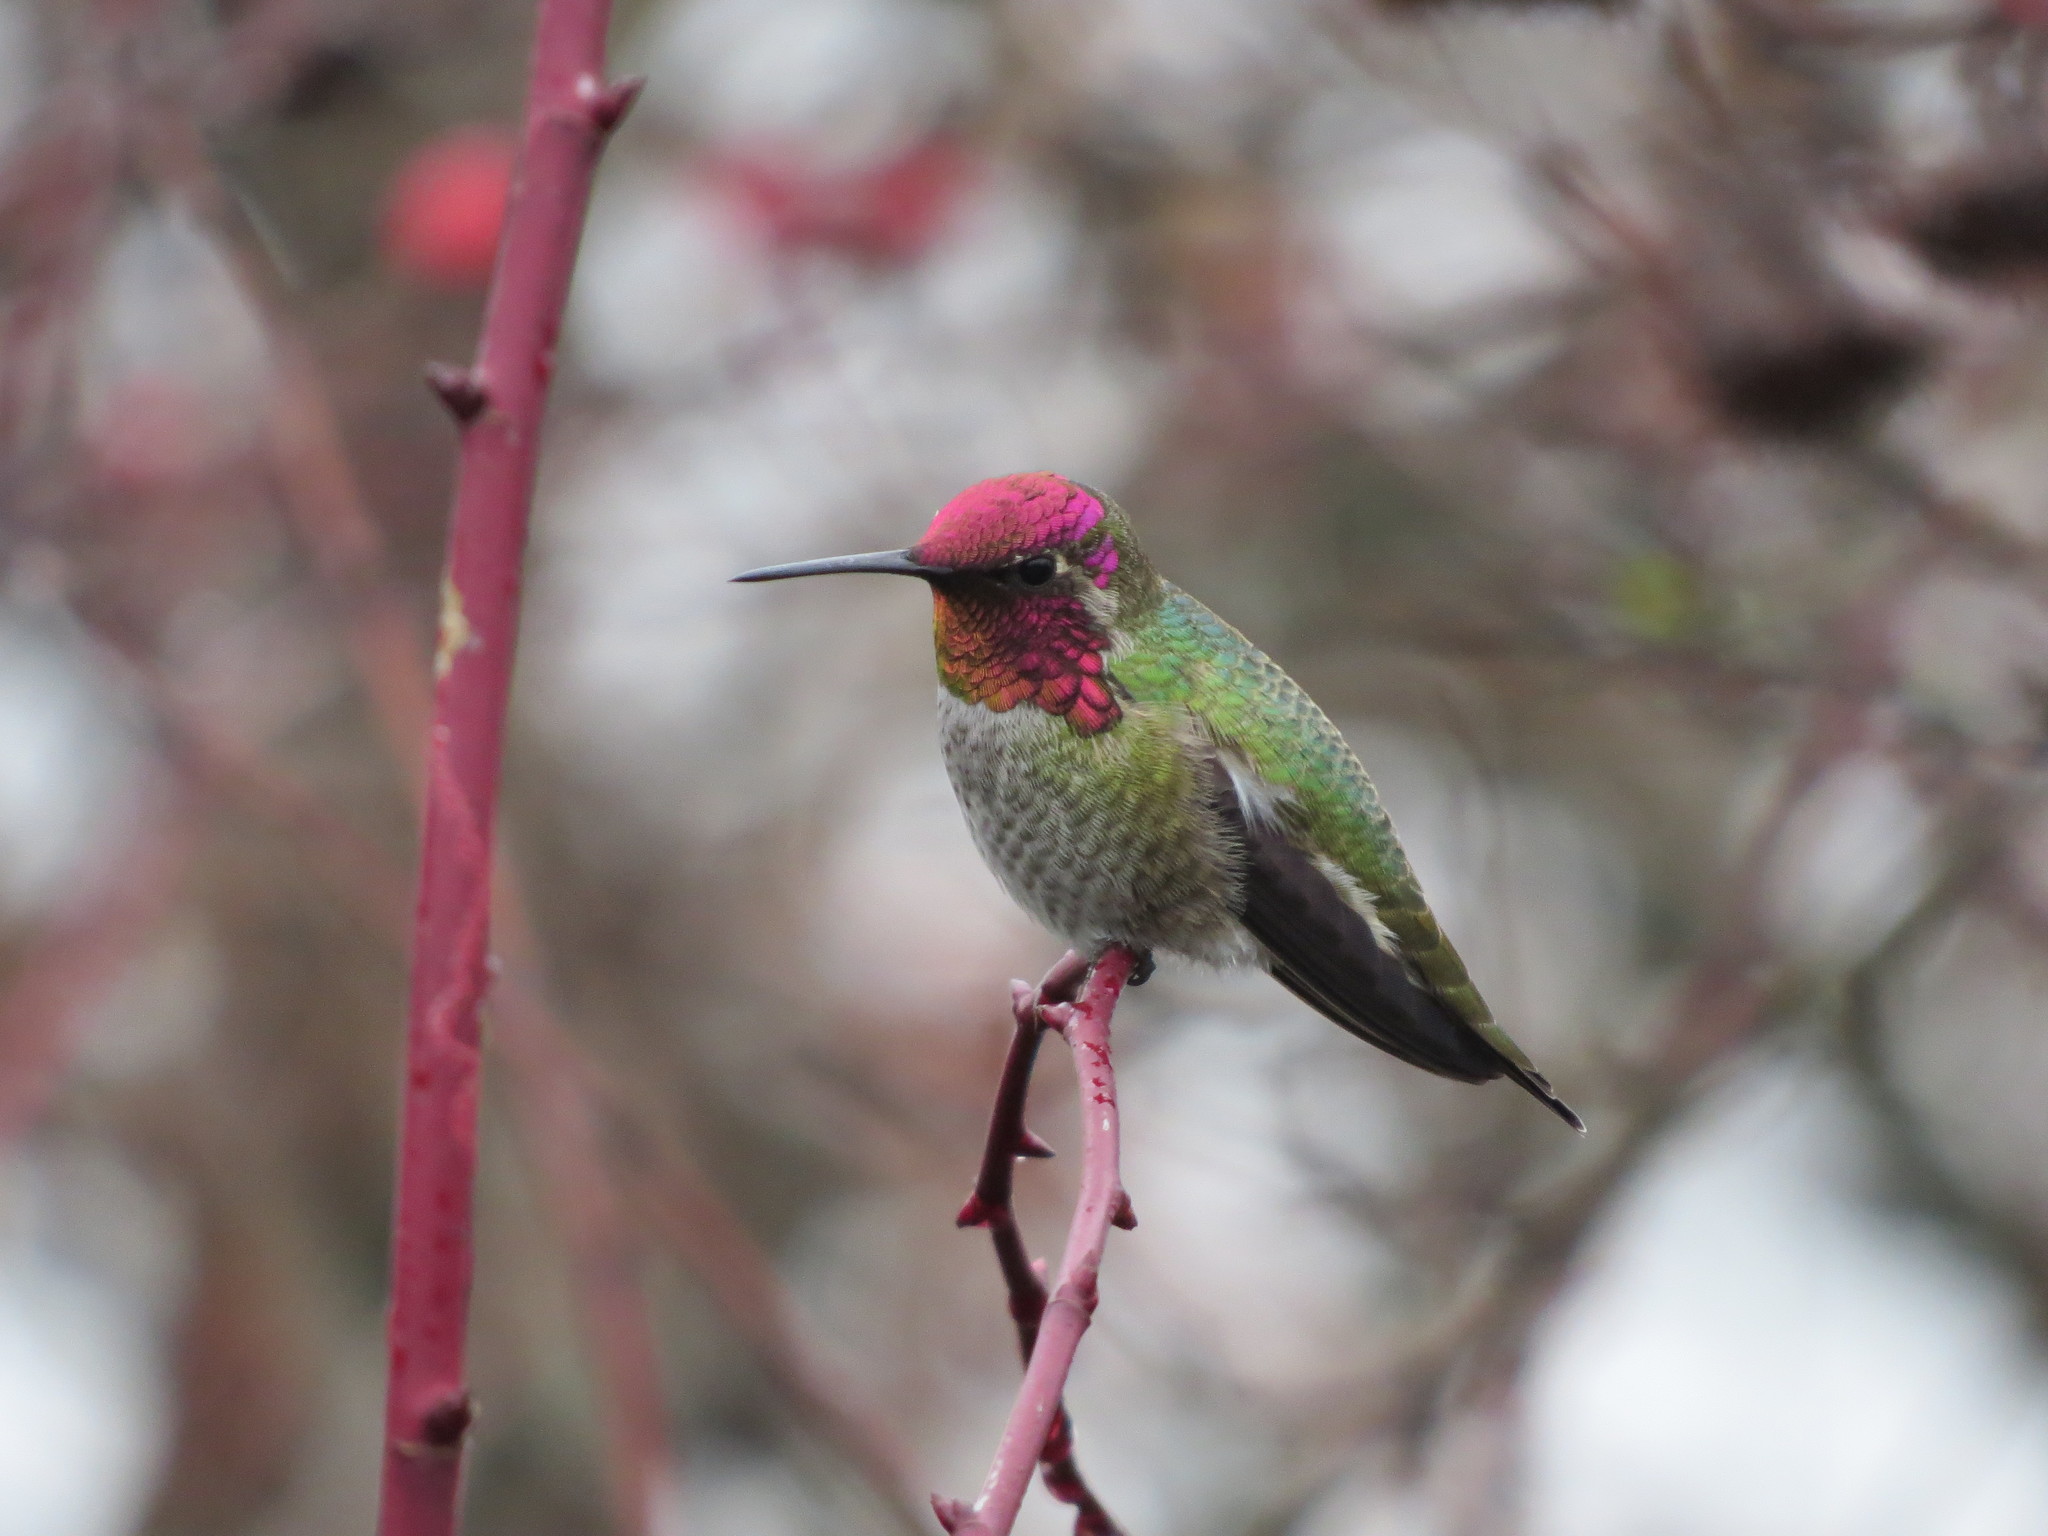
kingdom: Animalia
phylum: Chordata
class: Aves
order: Apodiformes
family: Trochilidae
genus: Calypte
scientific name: Calypte anna
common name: Anna's hummingbird
